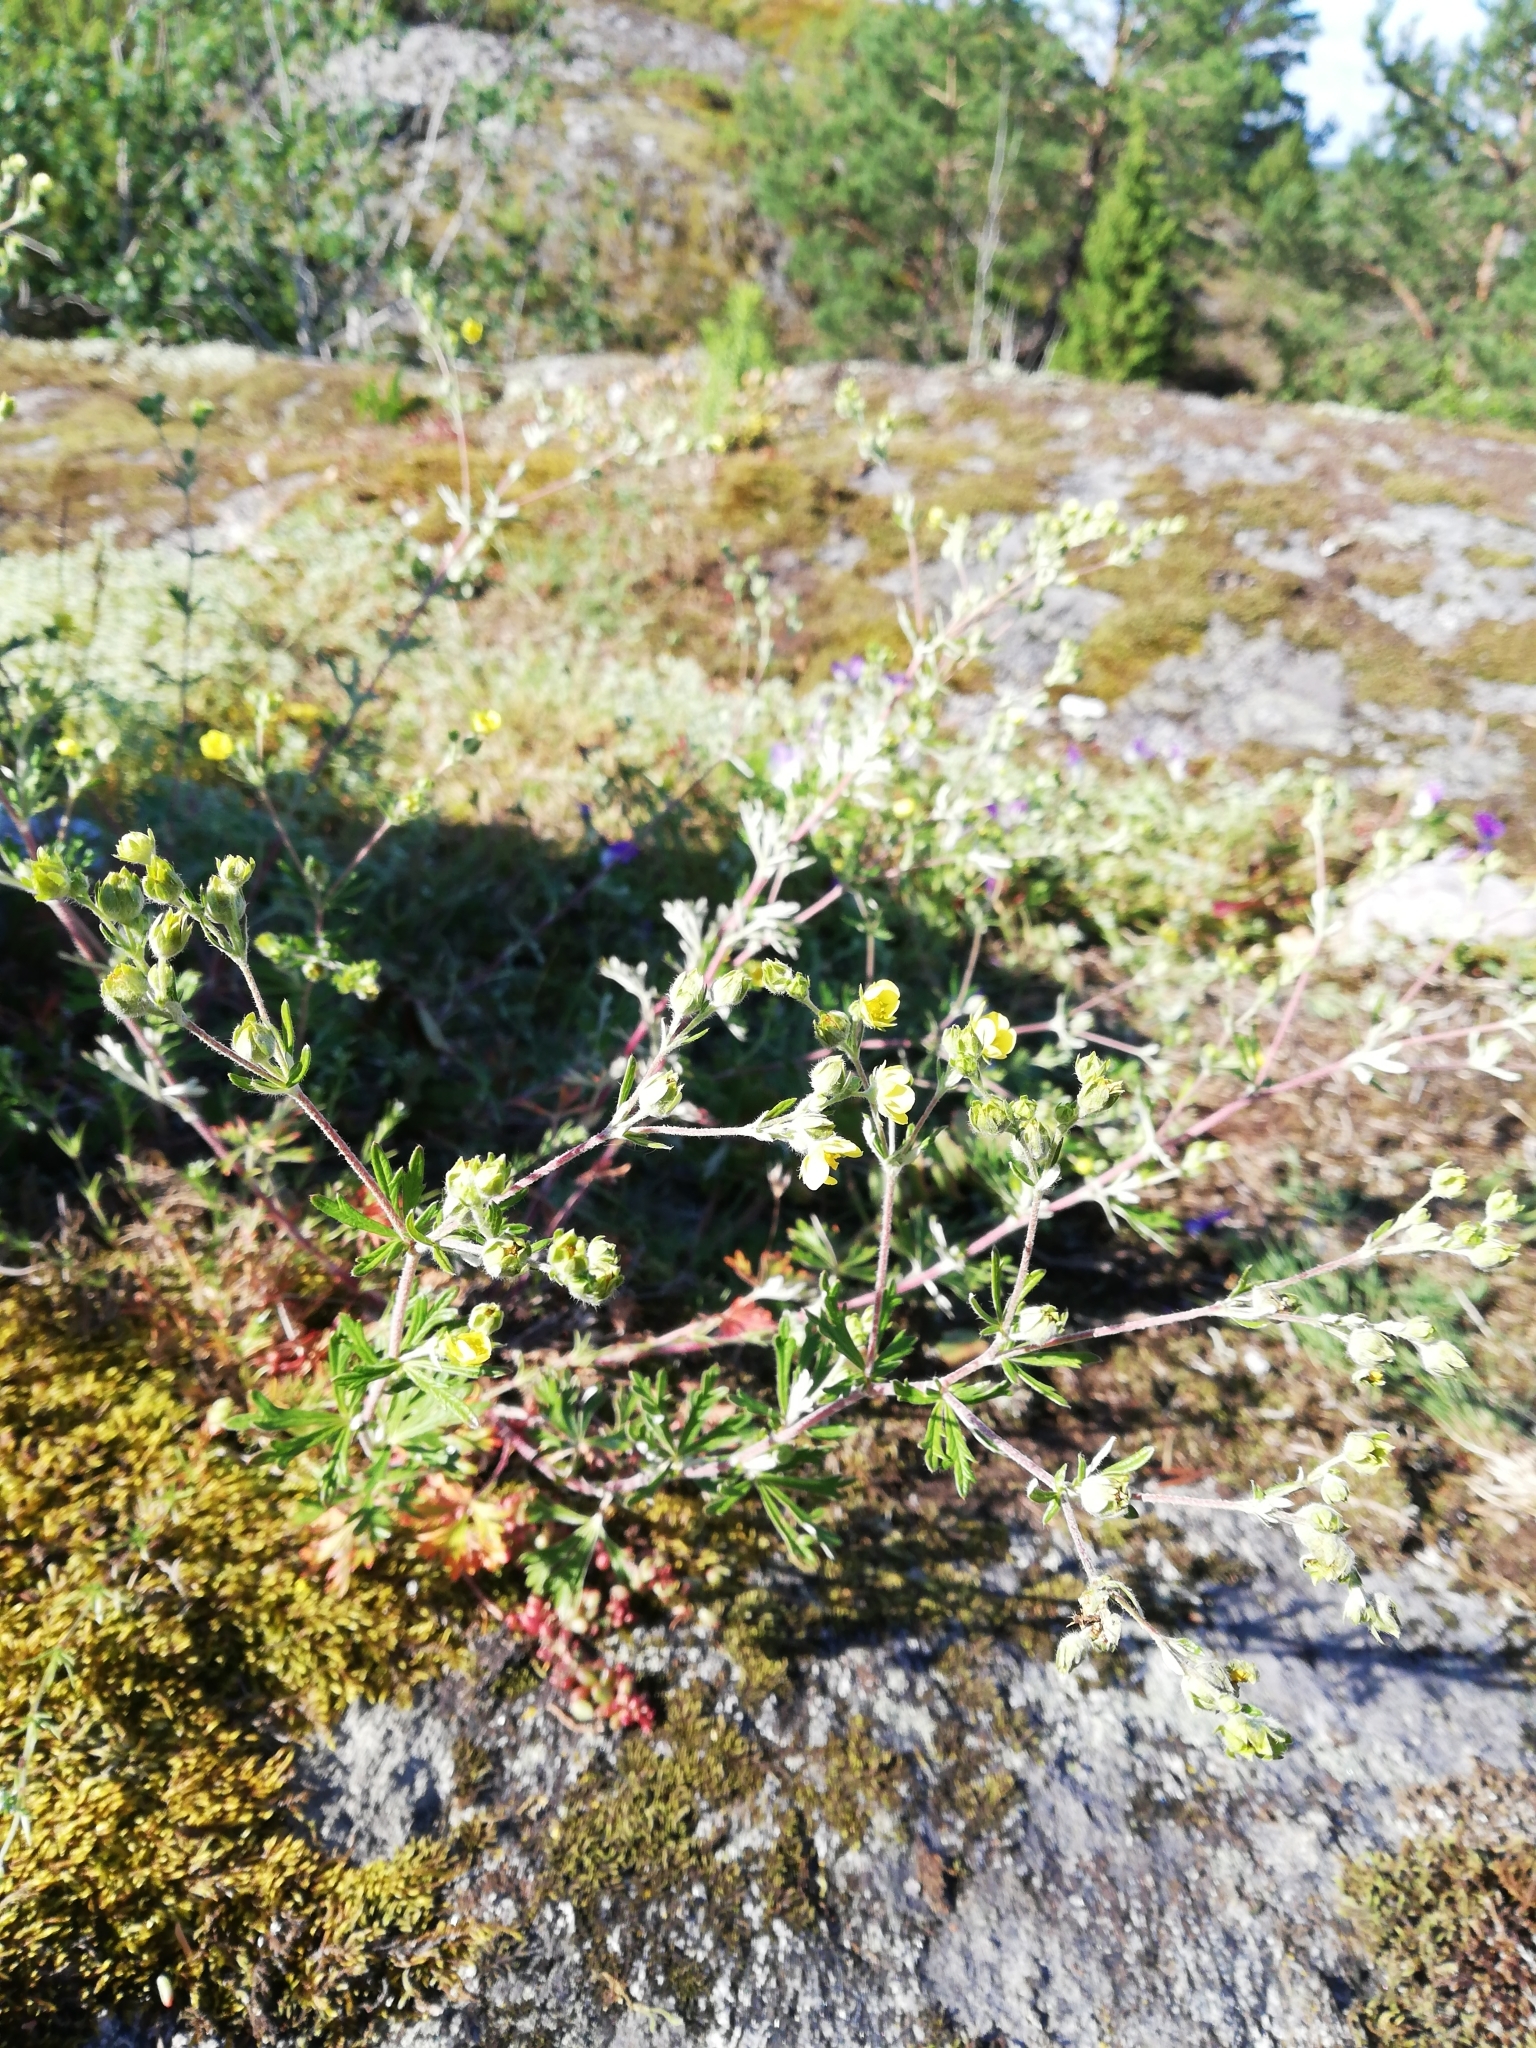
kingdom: Plantae
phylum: Tracheophyta
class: Magnoliopsida
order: Rosales
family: Rosaceae
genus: Potentilla
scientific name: Potentilla argentea
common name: Hoary cinquefoil
